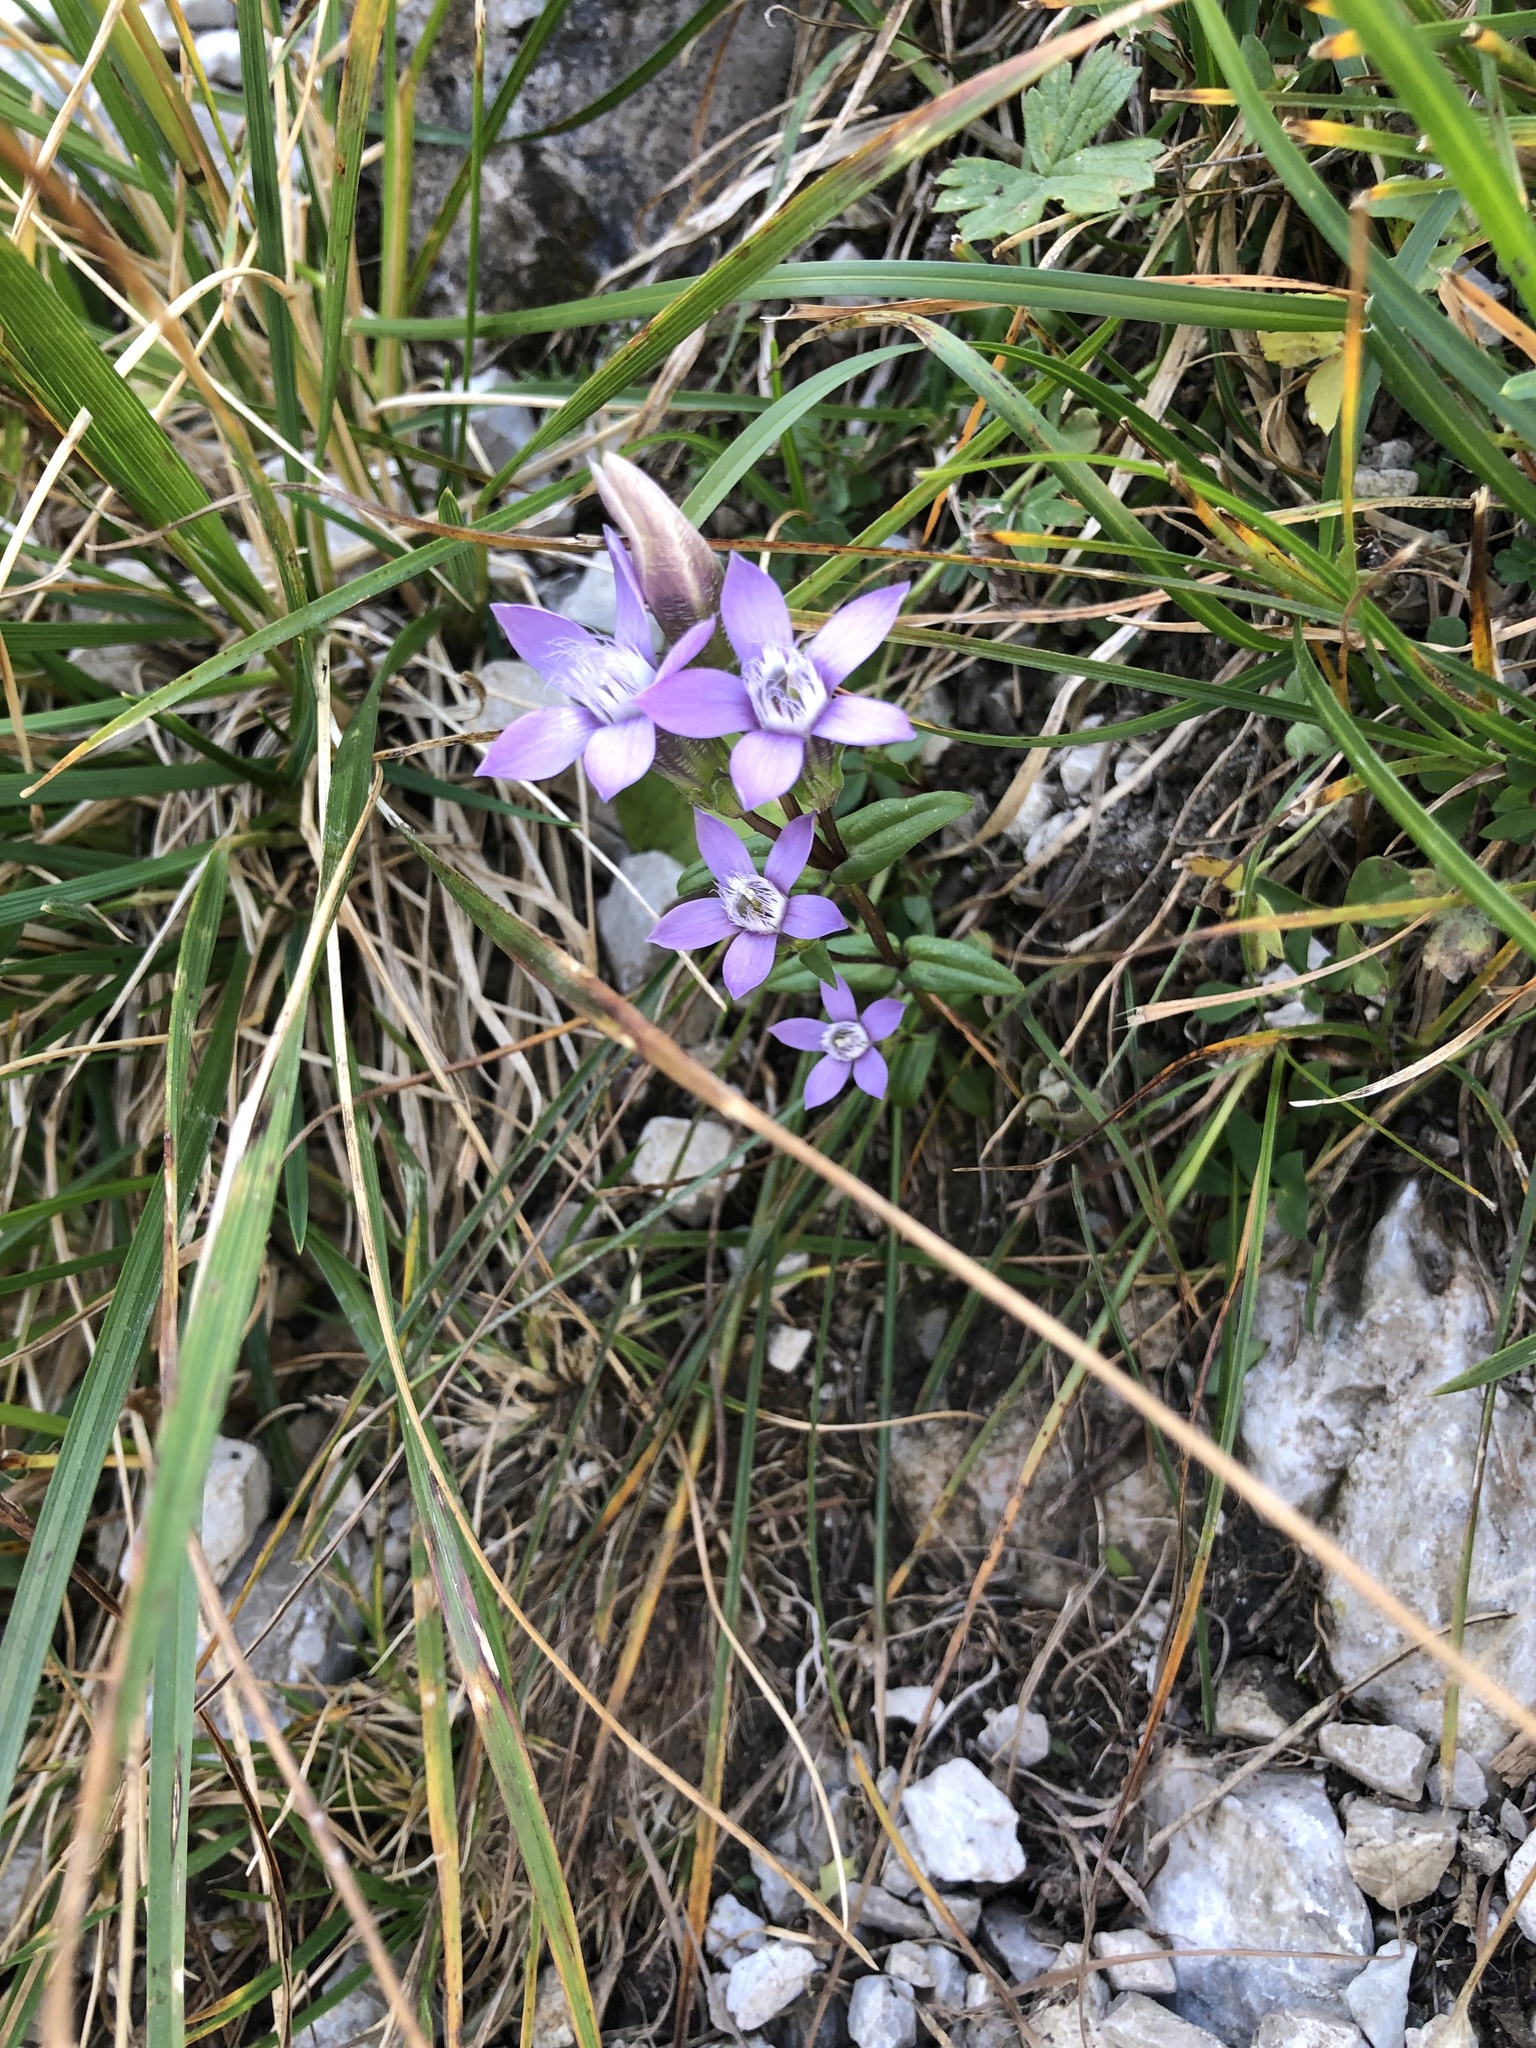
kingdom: Plantae
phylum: Tracheophyta
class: Magnoliopsida
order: Gentianales
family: Gentianaceae
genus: Gentianella
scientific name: Gentianella obtusifolia
